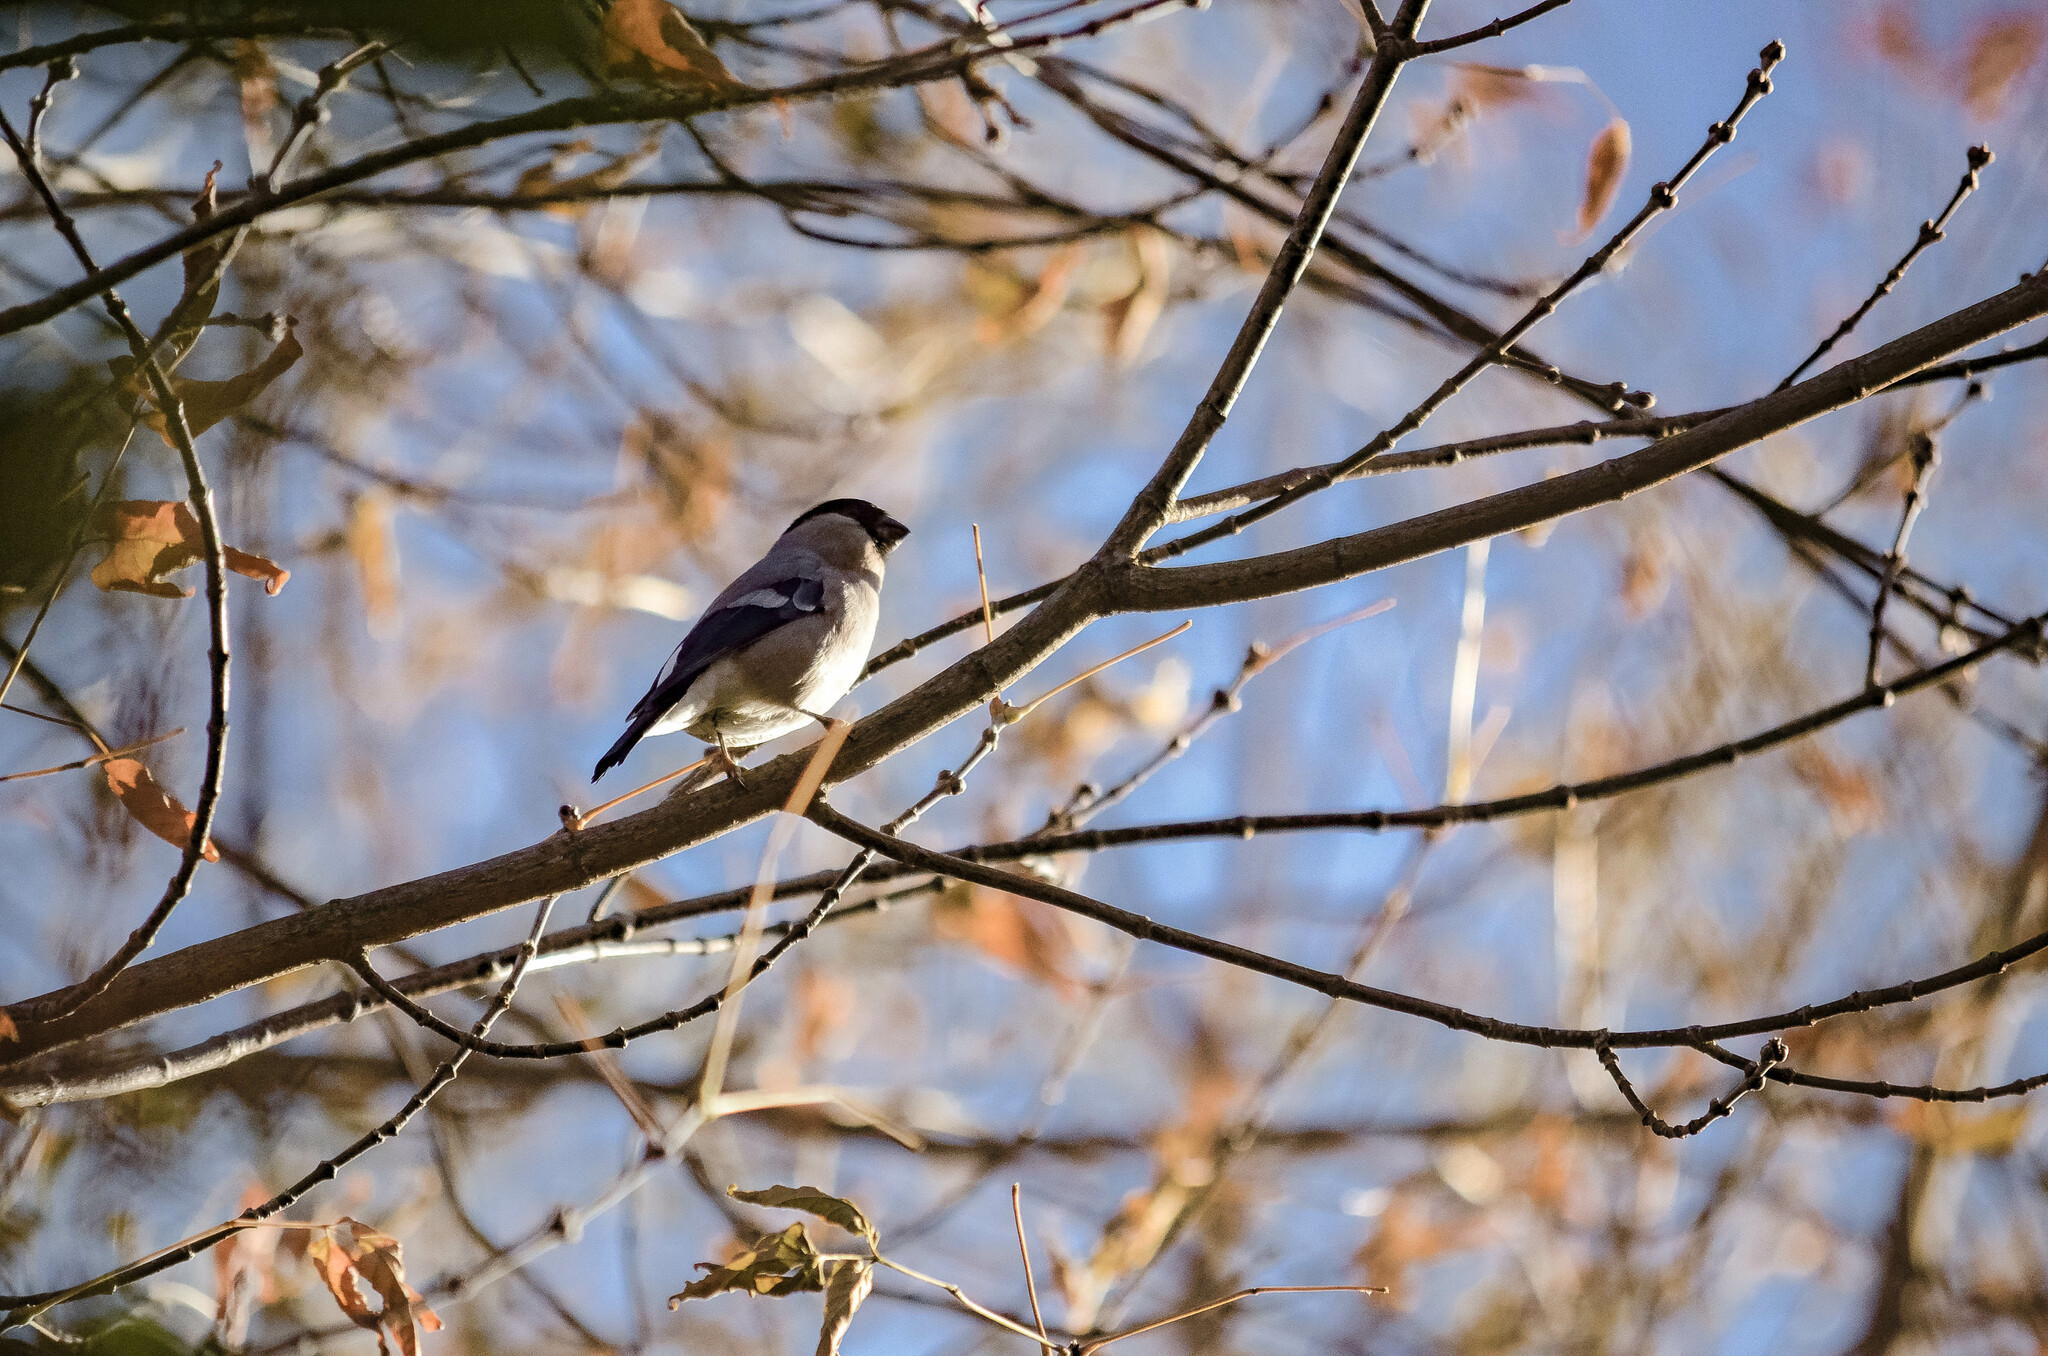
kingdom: Animalia
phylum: Chordata
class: Aves
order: Passeriformes
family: Fringillidae
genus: Pyrrhula
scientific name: Pyrrhula pyrrhula
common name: Eurasian bullfinch
